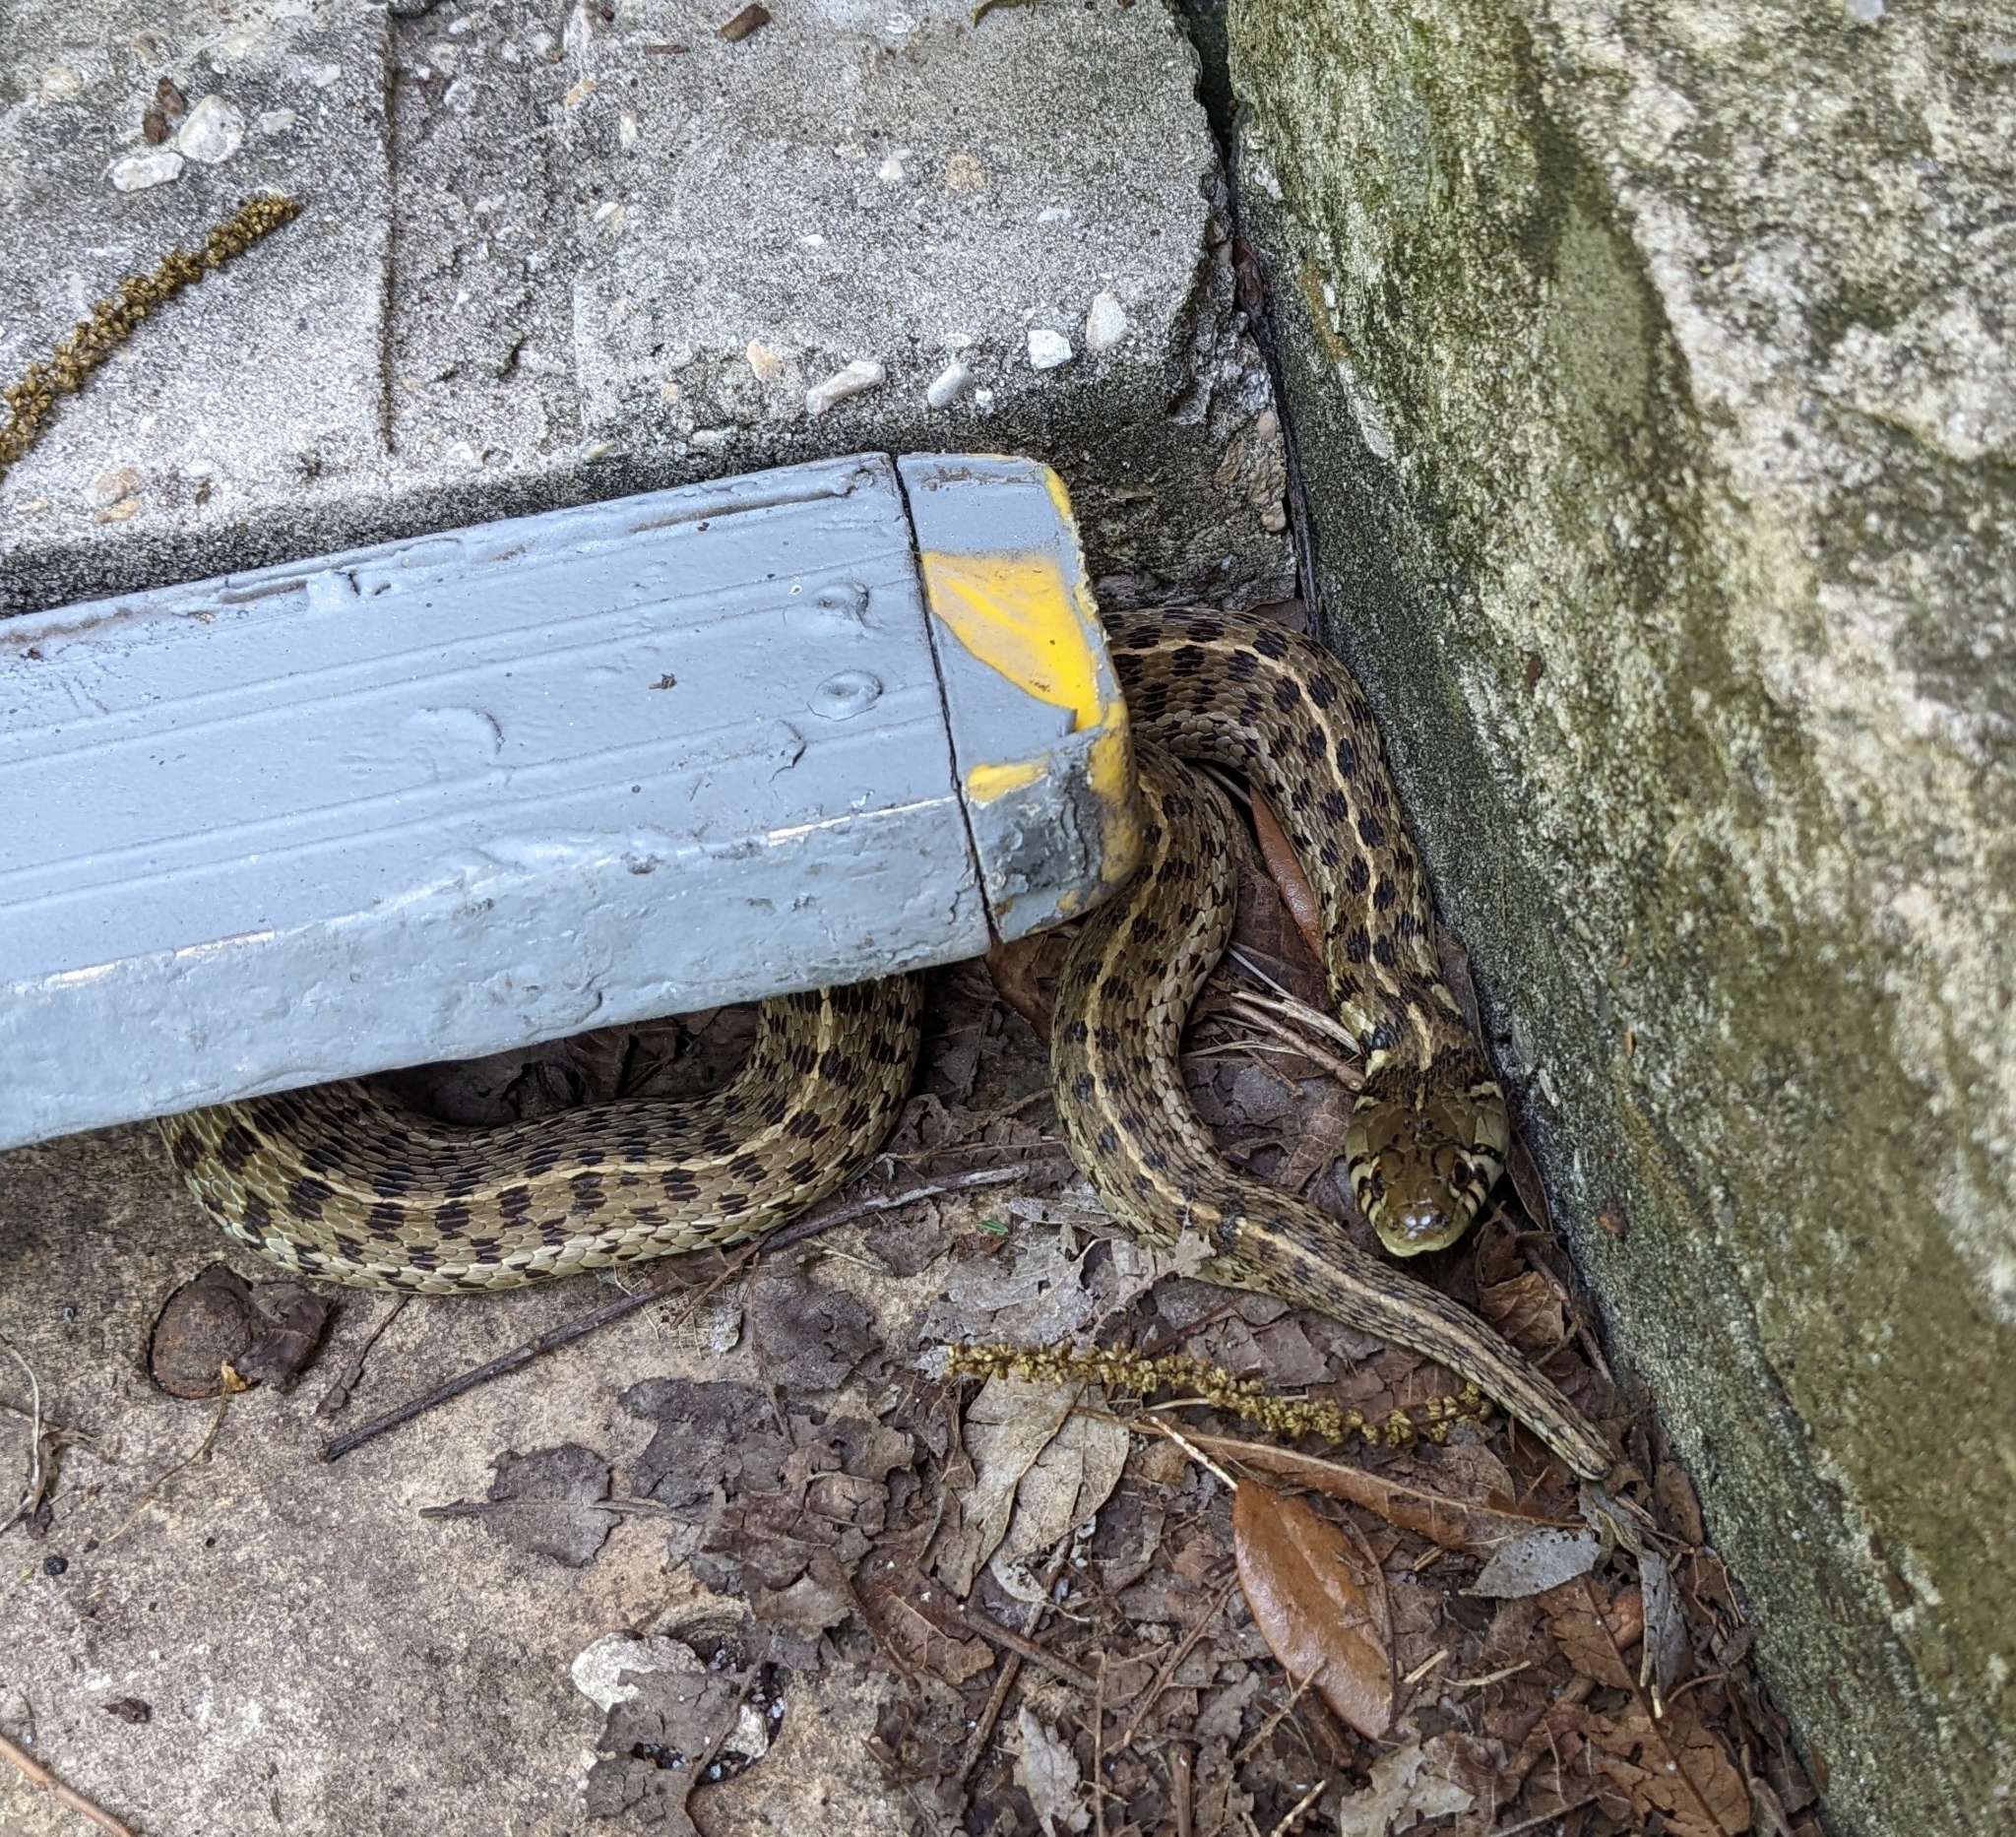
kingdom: Animalia
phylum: Chordata
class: Squamata
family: Colubridae
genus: Thamnophis
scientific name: Thamnophis marcianus
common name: Checkered garter snake
